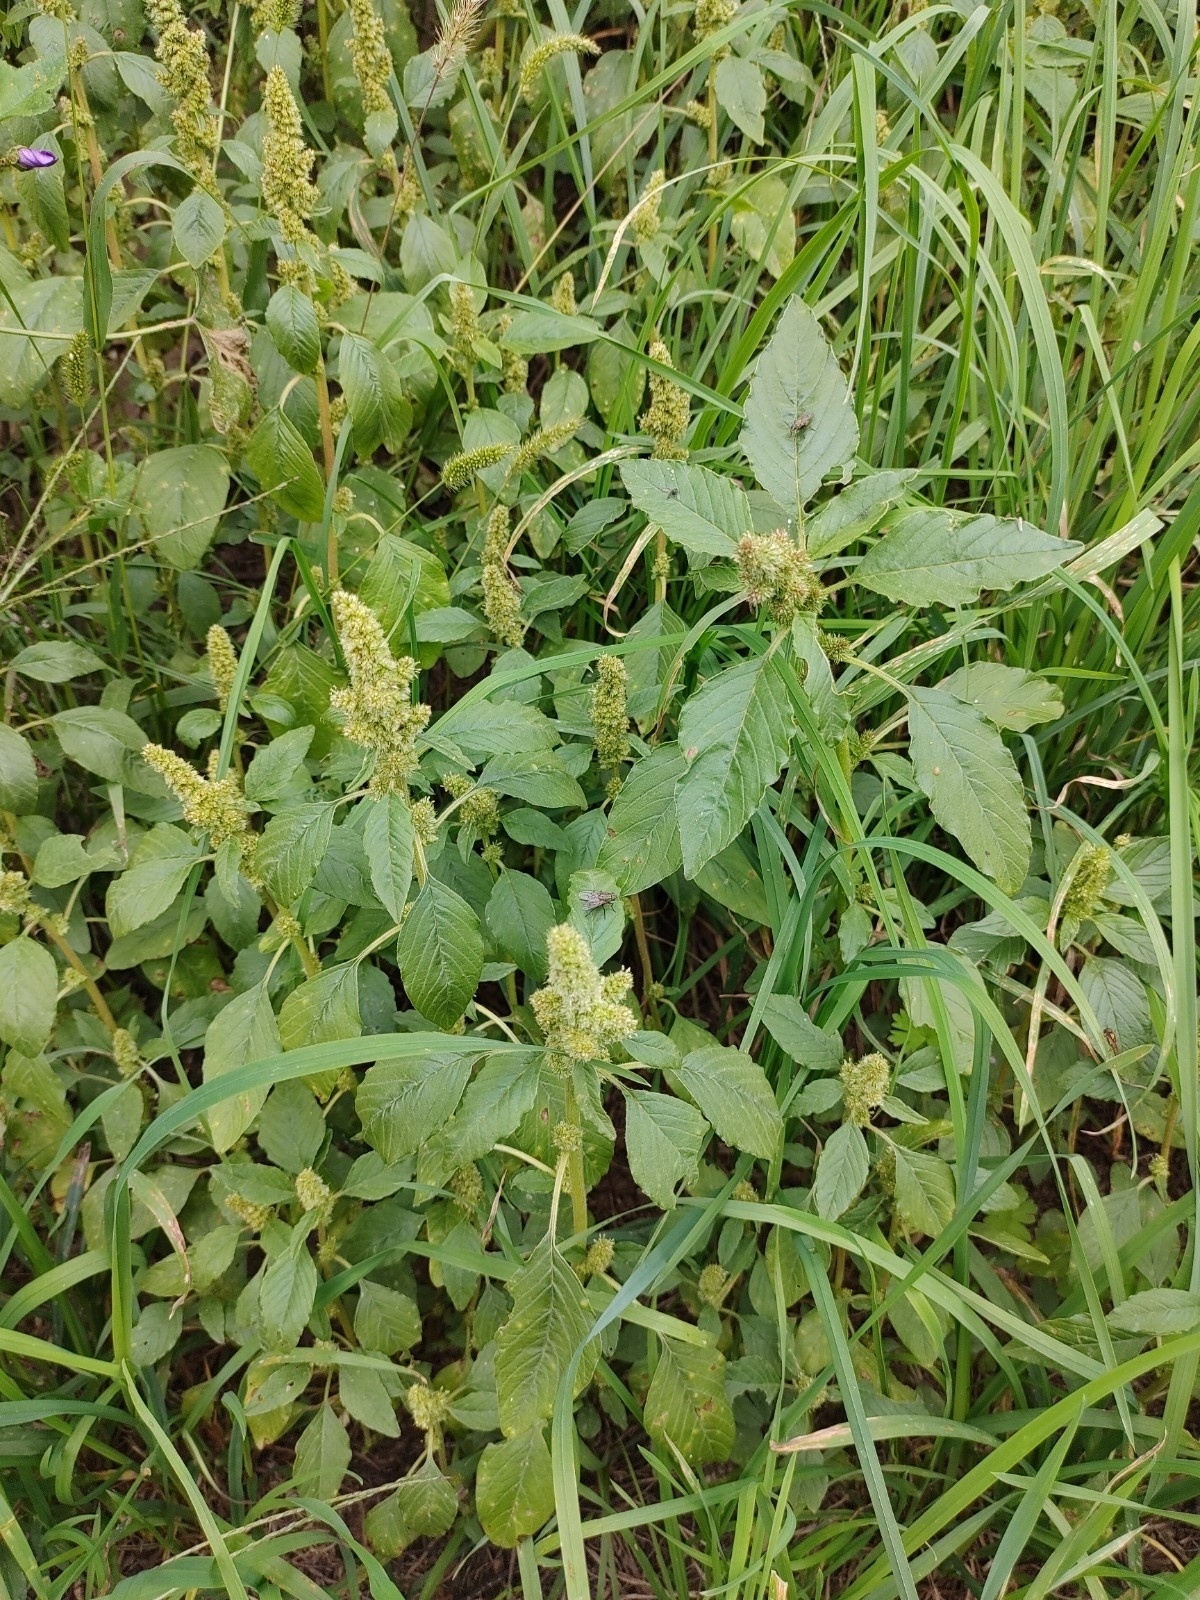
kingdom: Plantae
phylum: Tracheophyta
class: Magnoliopsida
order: Caryophyllales
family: Amaranthaceae
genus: Amaranthus
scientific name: Amaranthus retroflexus
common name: Redroot amaranth
